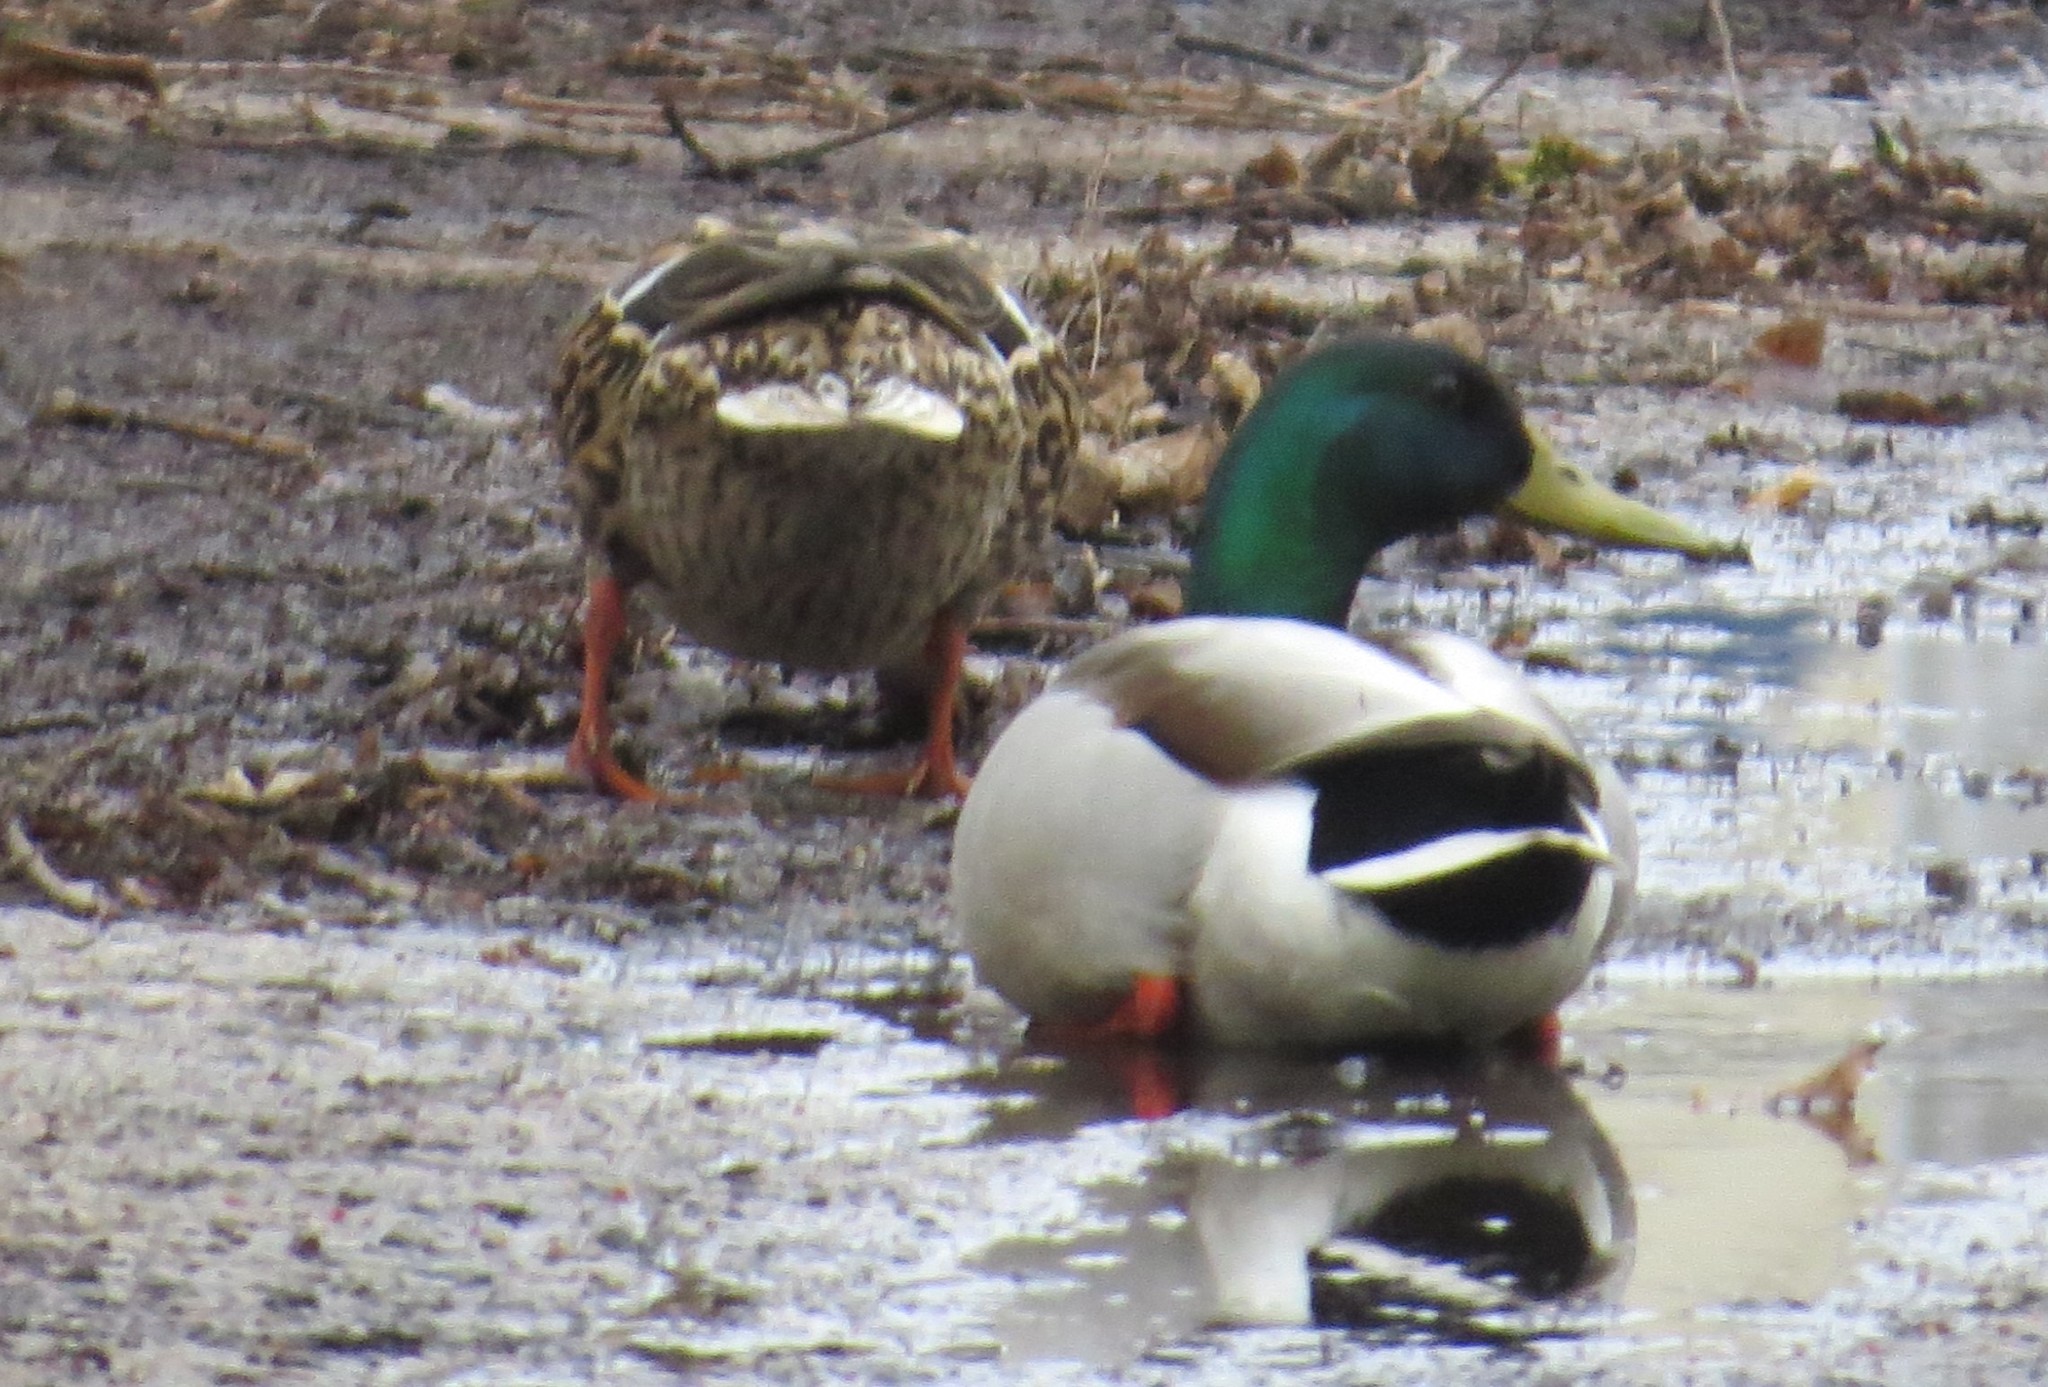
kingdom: Animalia
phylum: Chordata
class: Aves
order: Anseriformes
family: Anatidae
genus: Anas
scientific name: Anas platyrhynchos
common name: Mallard
